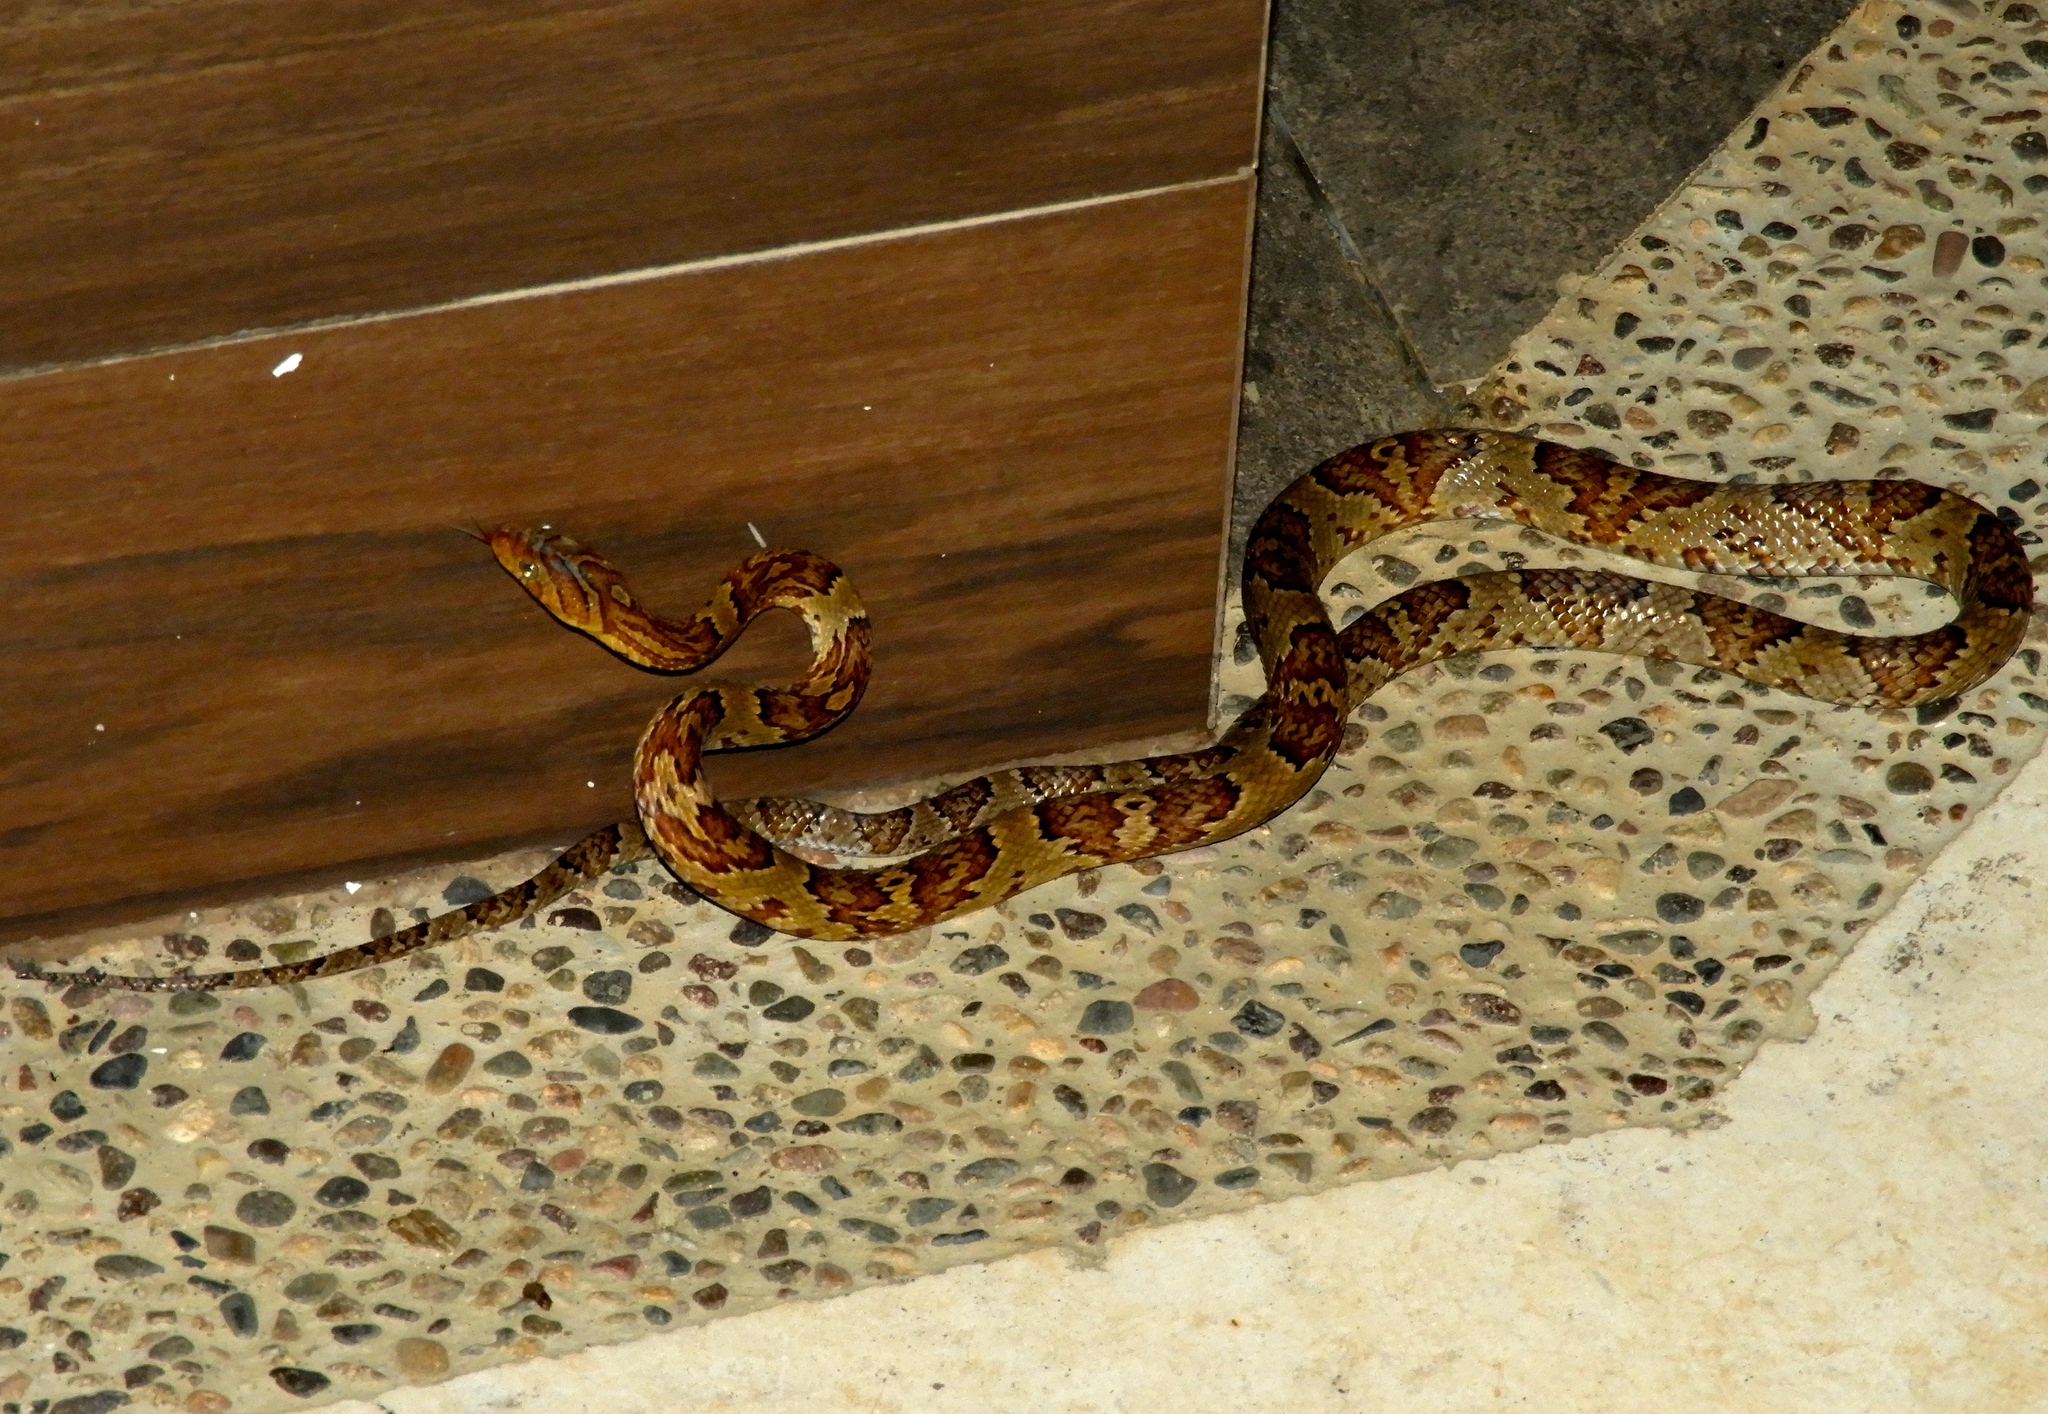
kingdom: Animalia
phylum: Chordata
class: Squamata
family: Colubridae
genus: Trimorphodon
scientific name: Trimorphodon paucimaculatus
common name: Sinaloan lyresnake
